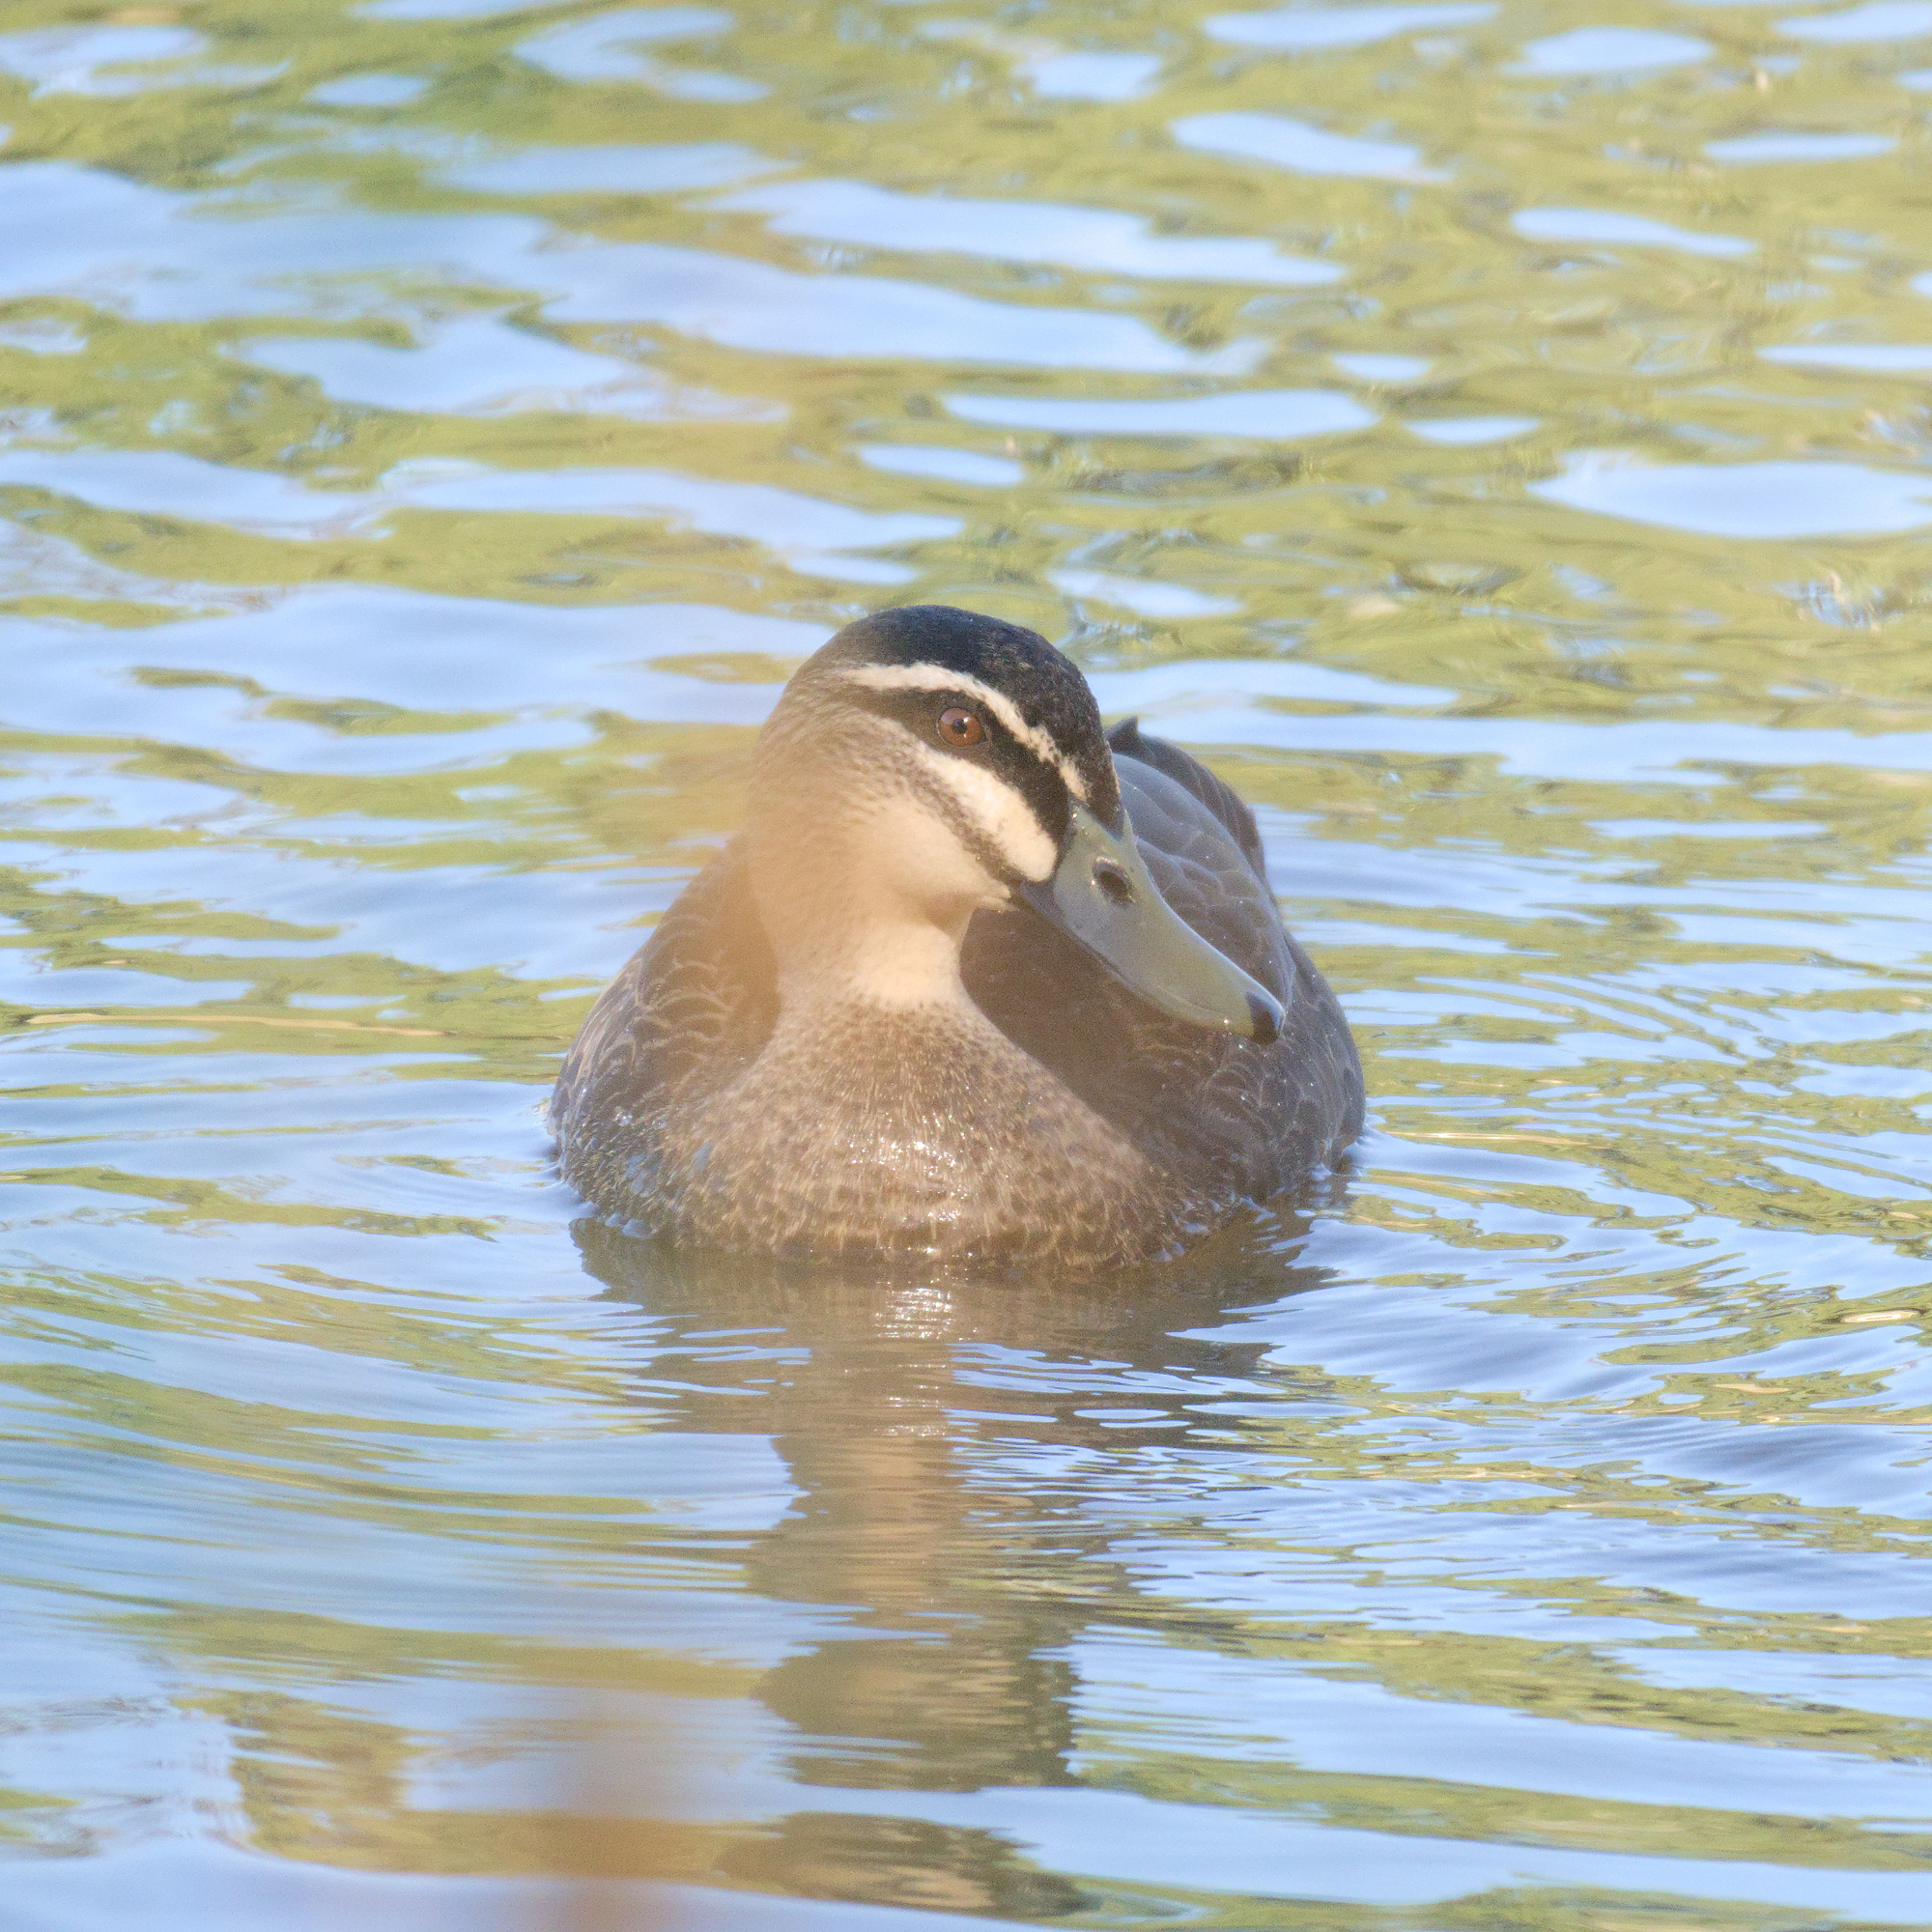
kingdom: Animalia
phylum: Chordata
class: Aves
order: Anseriformes
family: Anatidae
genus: Anas
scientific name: Anas superciliosa
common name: Pacific black duck
